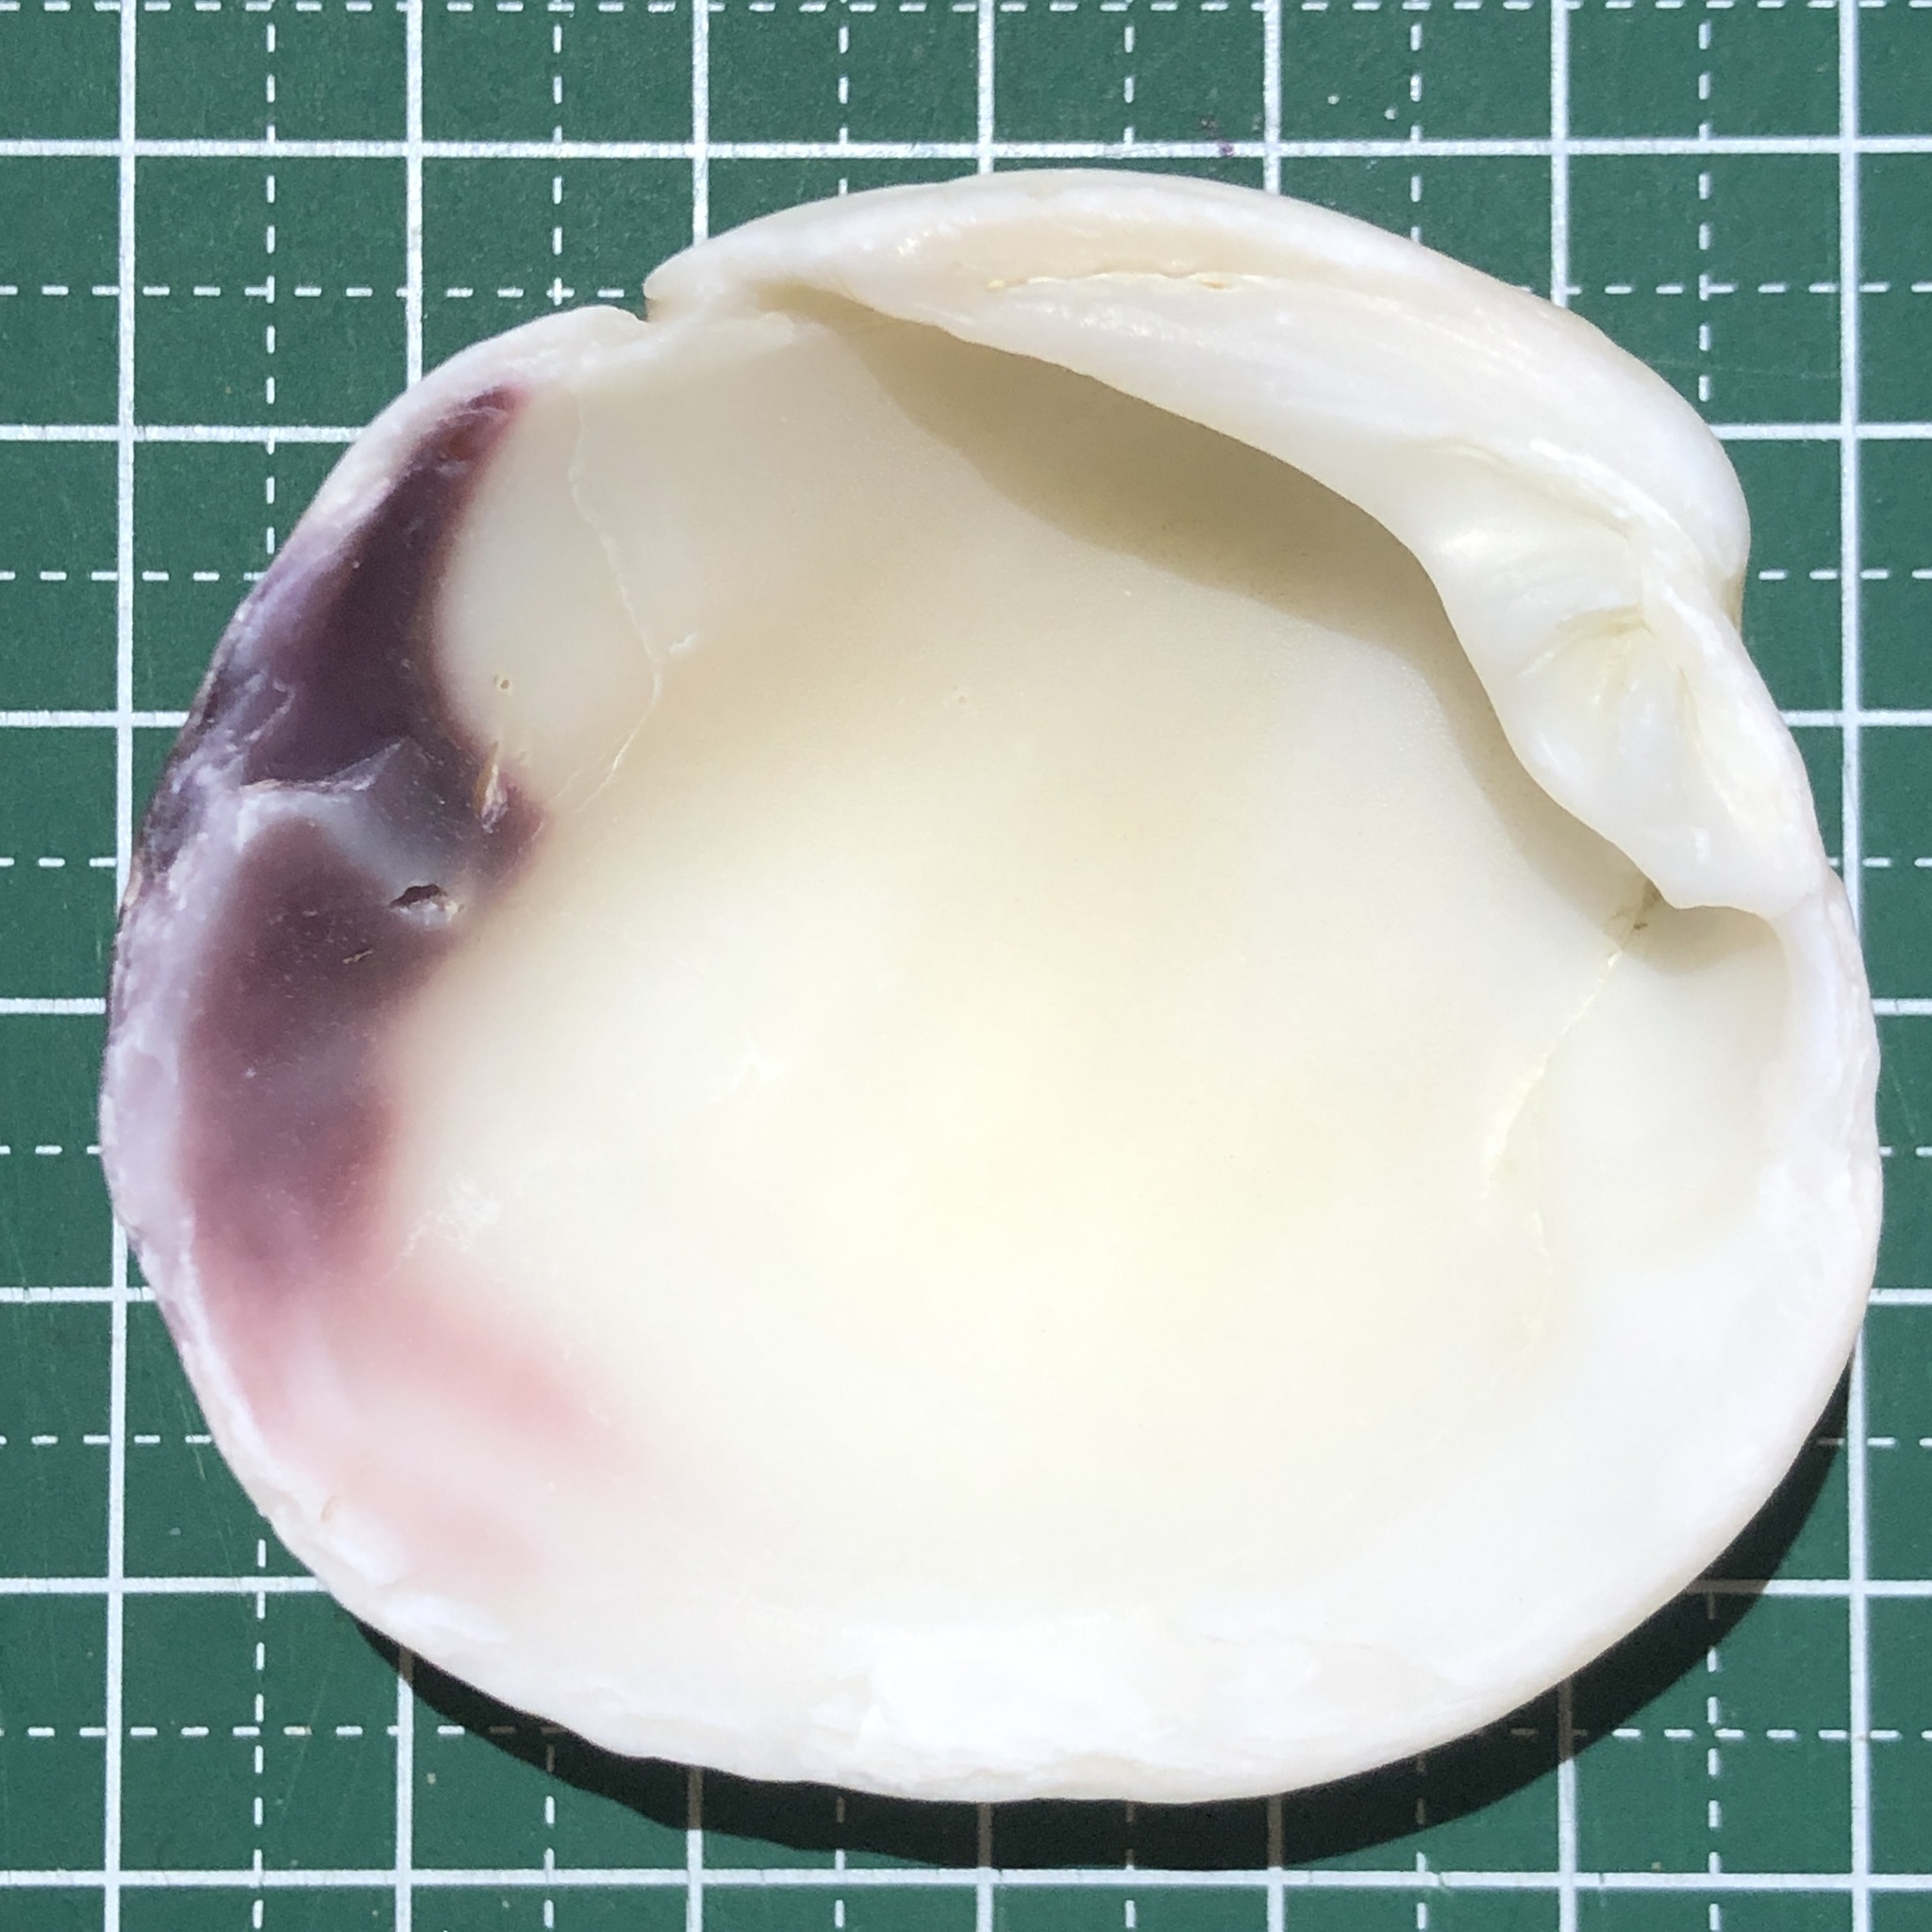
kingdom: Animalia
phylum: Mollusca
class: Bivalvia
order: Venerida
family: Veneridae
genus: Periglypta
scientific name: Periglypta puerpera
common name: Youthful venus
